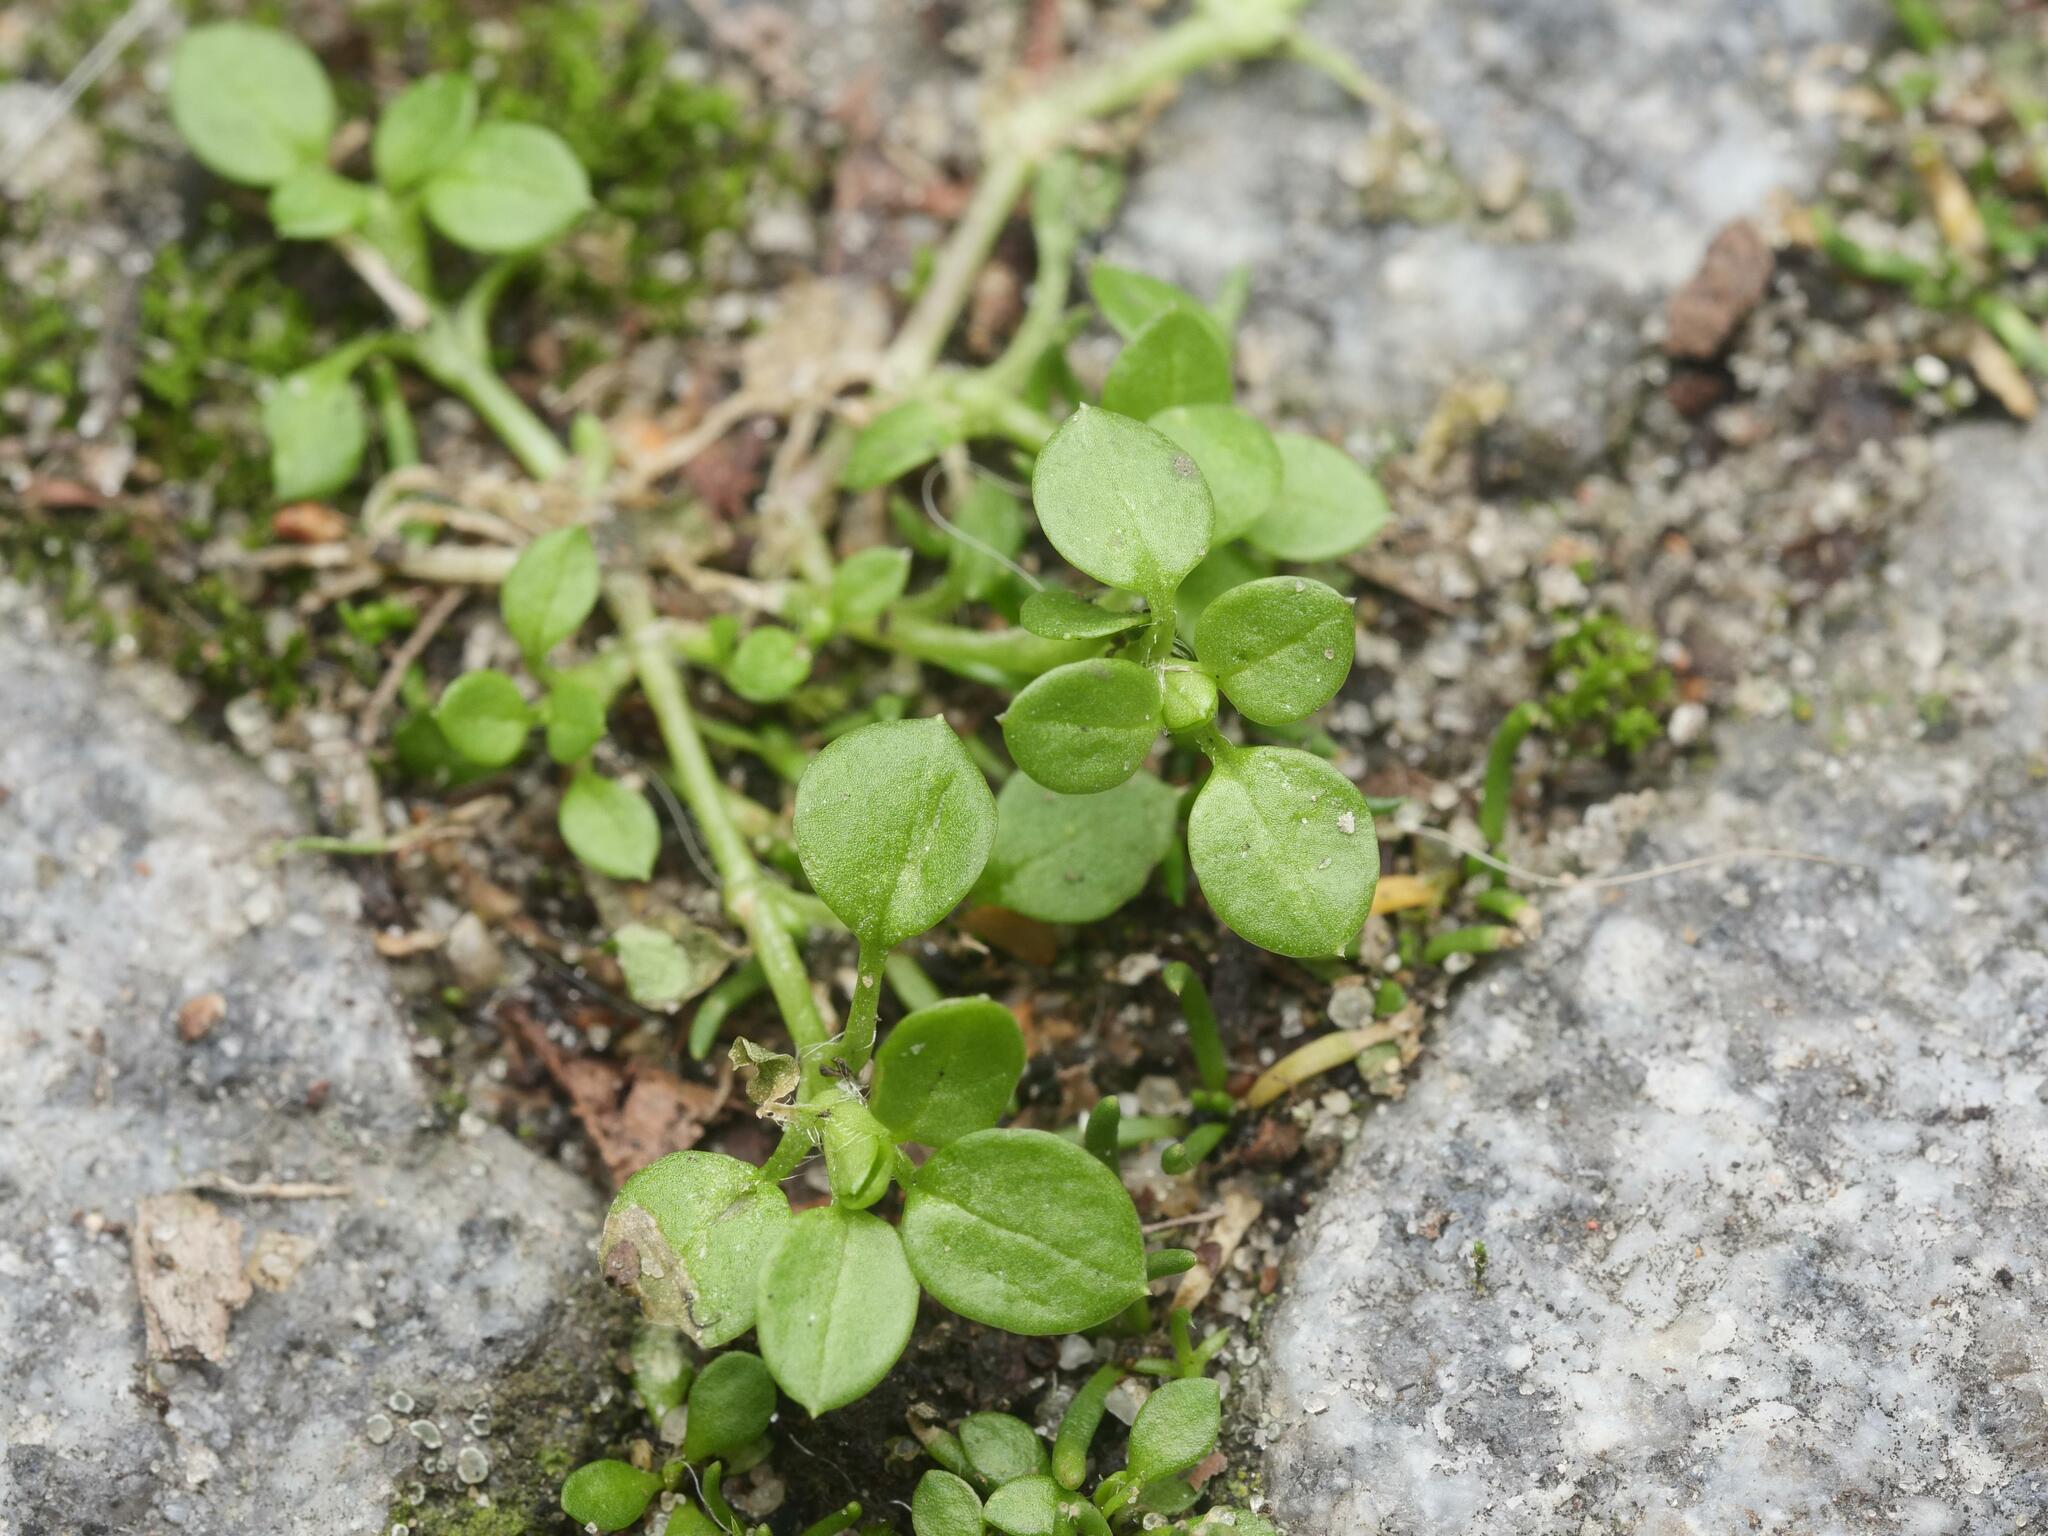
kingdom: Plantae
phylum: Tracheophyta
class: Magnoliopsida
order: Caryophyllales
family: Caryophyllaceae
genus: Stellaria
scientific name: Stellaria media
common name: Common chickweed
